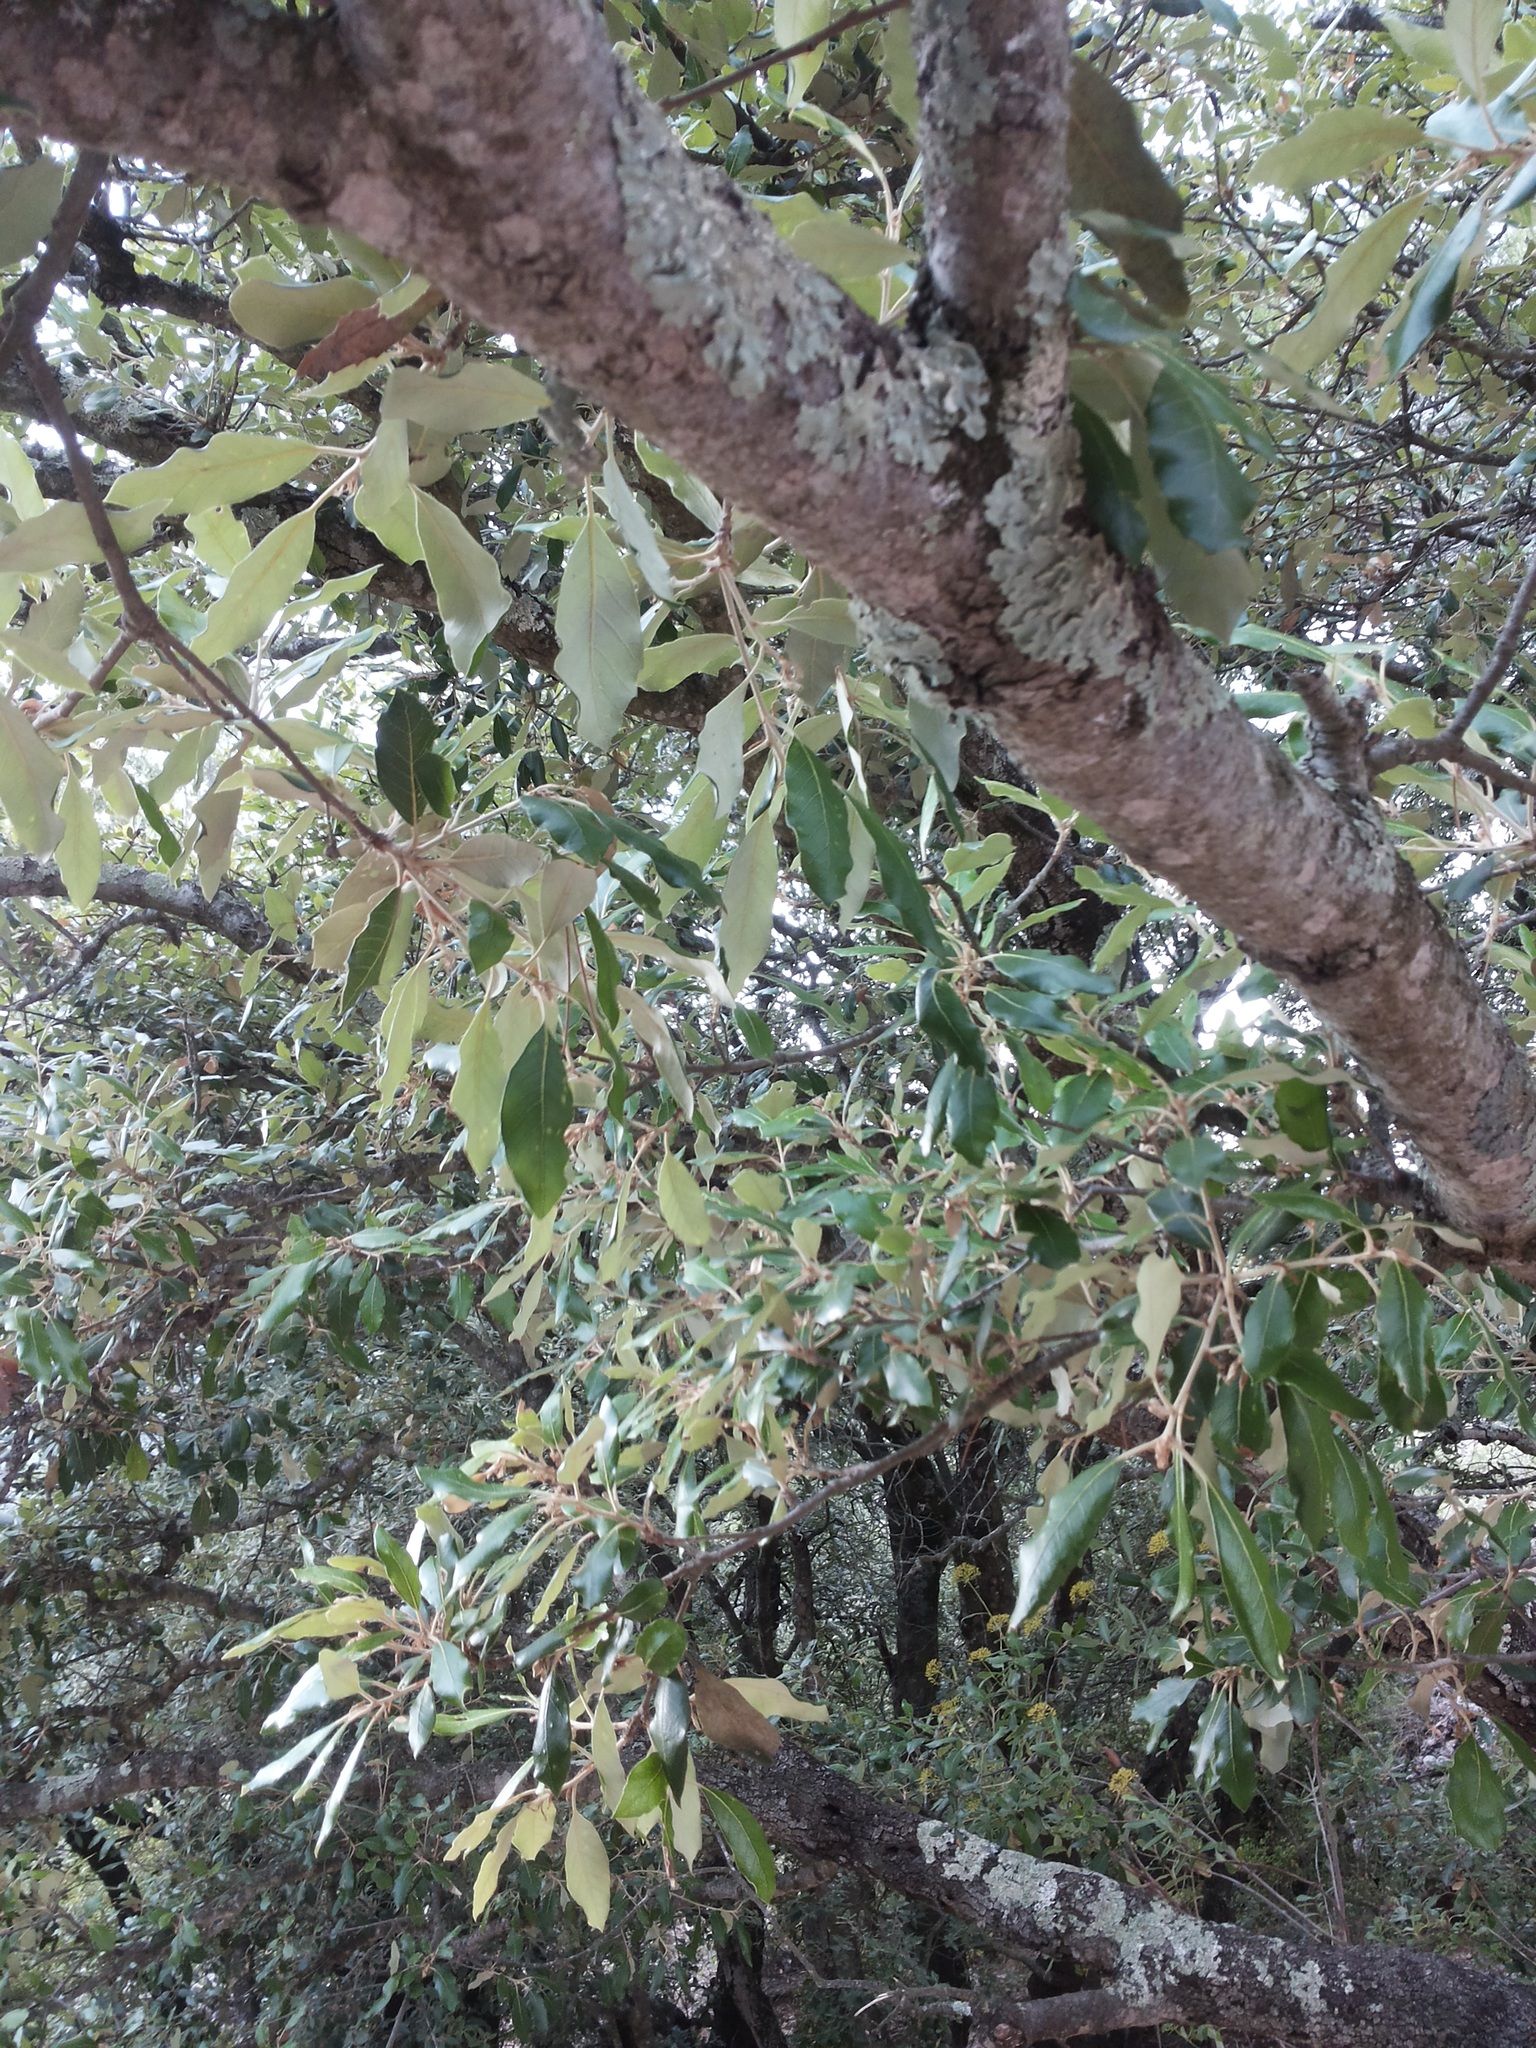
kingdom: Plantae
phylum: Tracheophyta
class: Magnoliopsida
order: Fagales
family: Fagaceae
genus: Quercus
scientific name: Quercus ilex
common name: Evergreen oak
